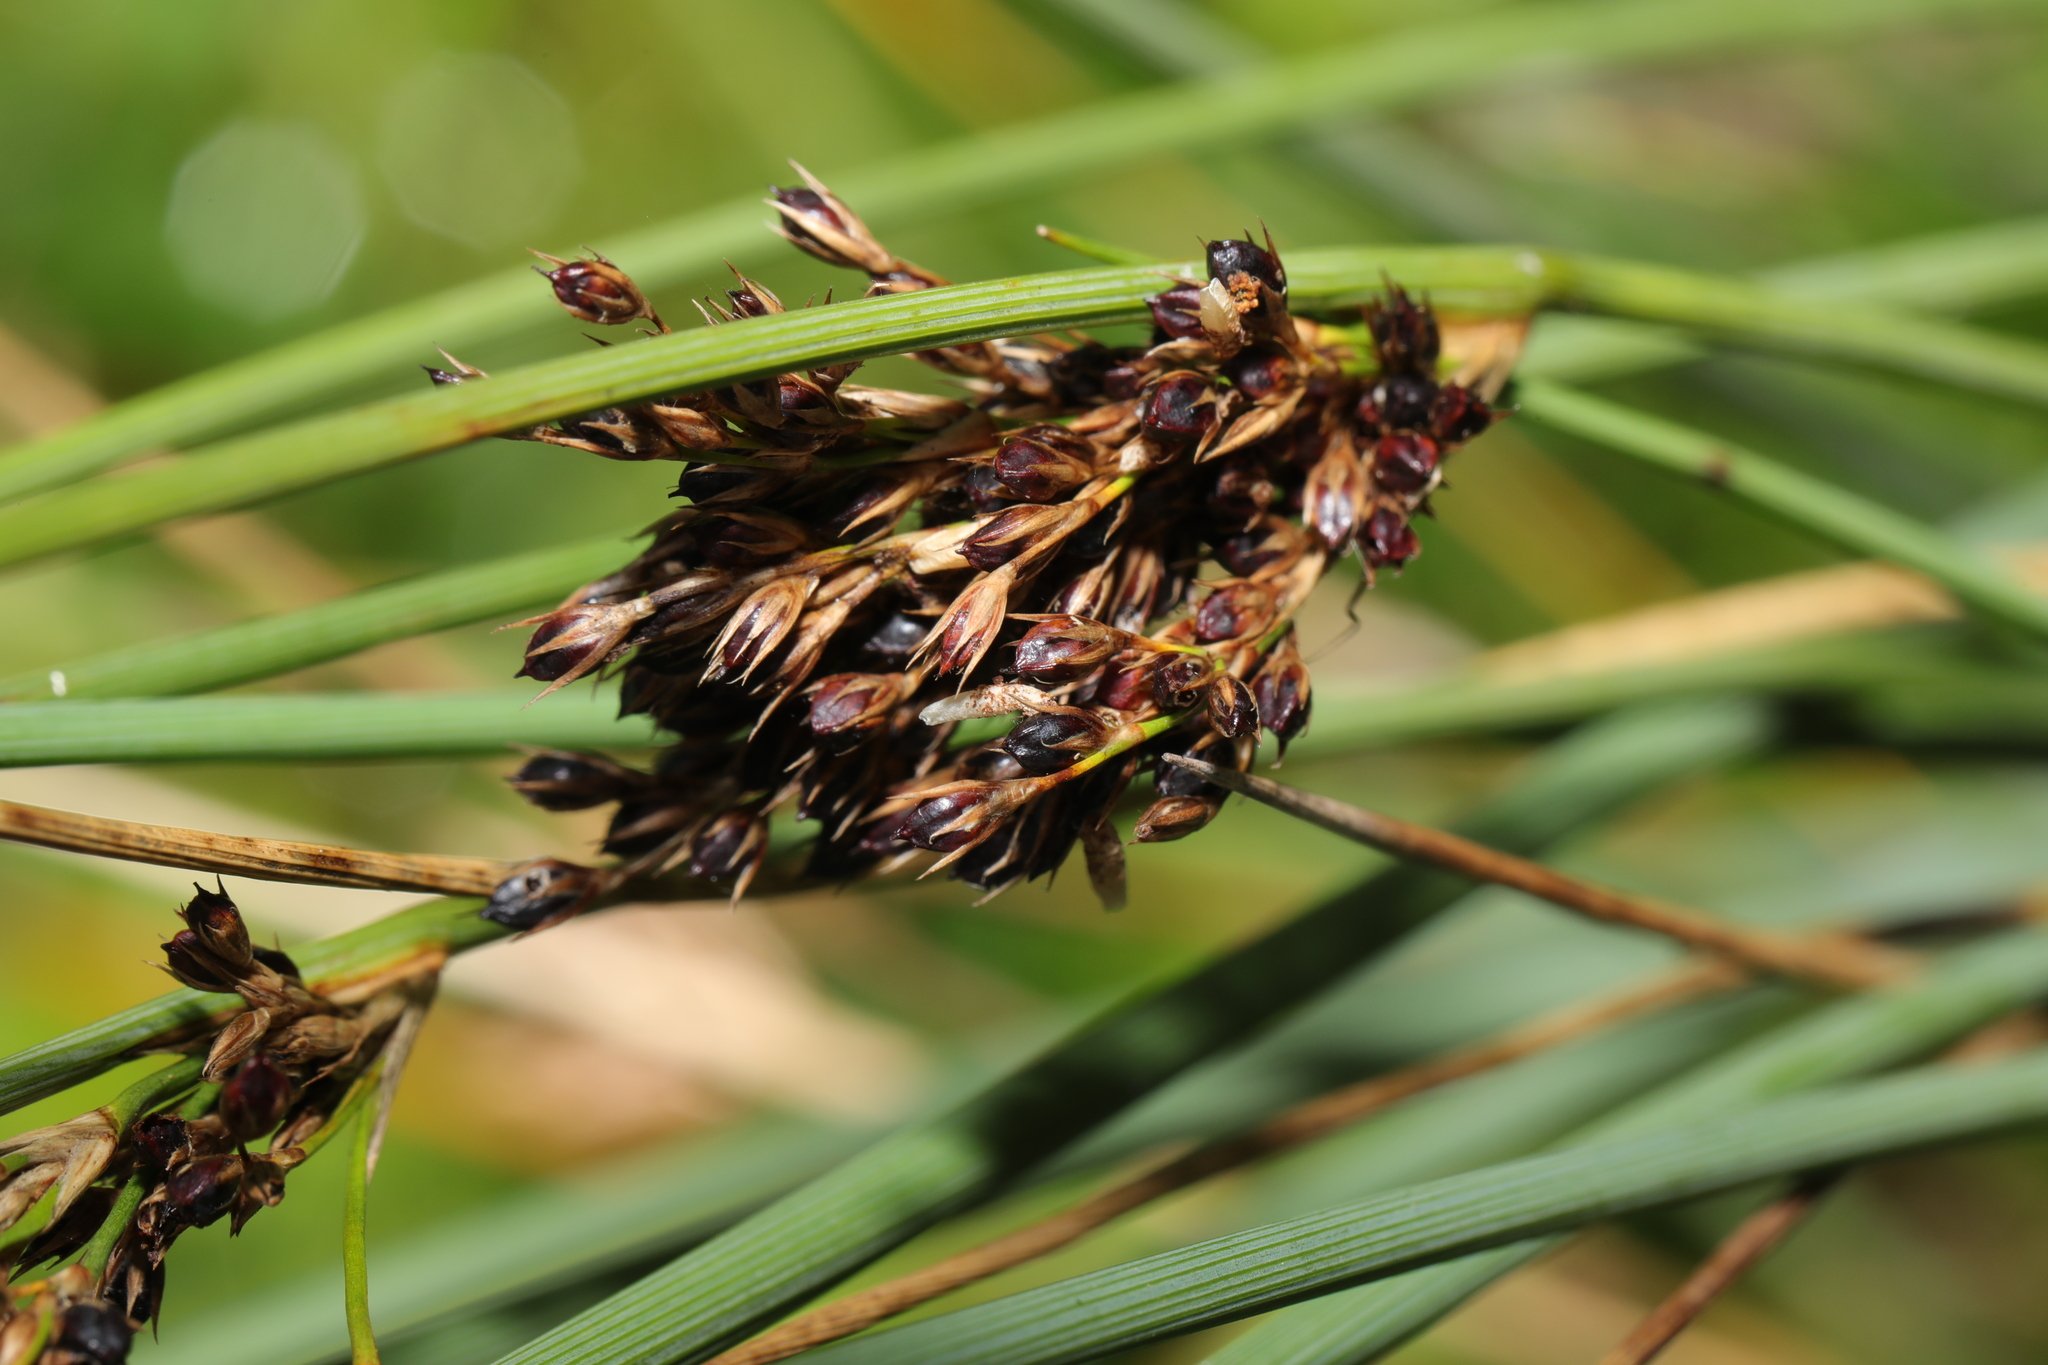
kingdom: Plantae
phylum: Tracheophyta
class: Liliopsida
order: Poales
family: Juncaceae
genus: Juncus
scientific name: Juncus inflexus
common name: Hard rush
